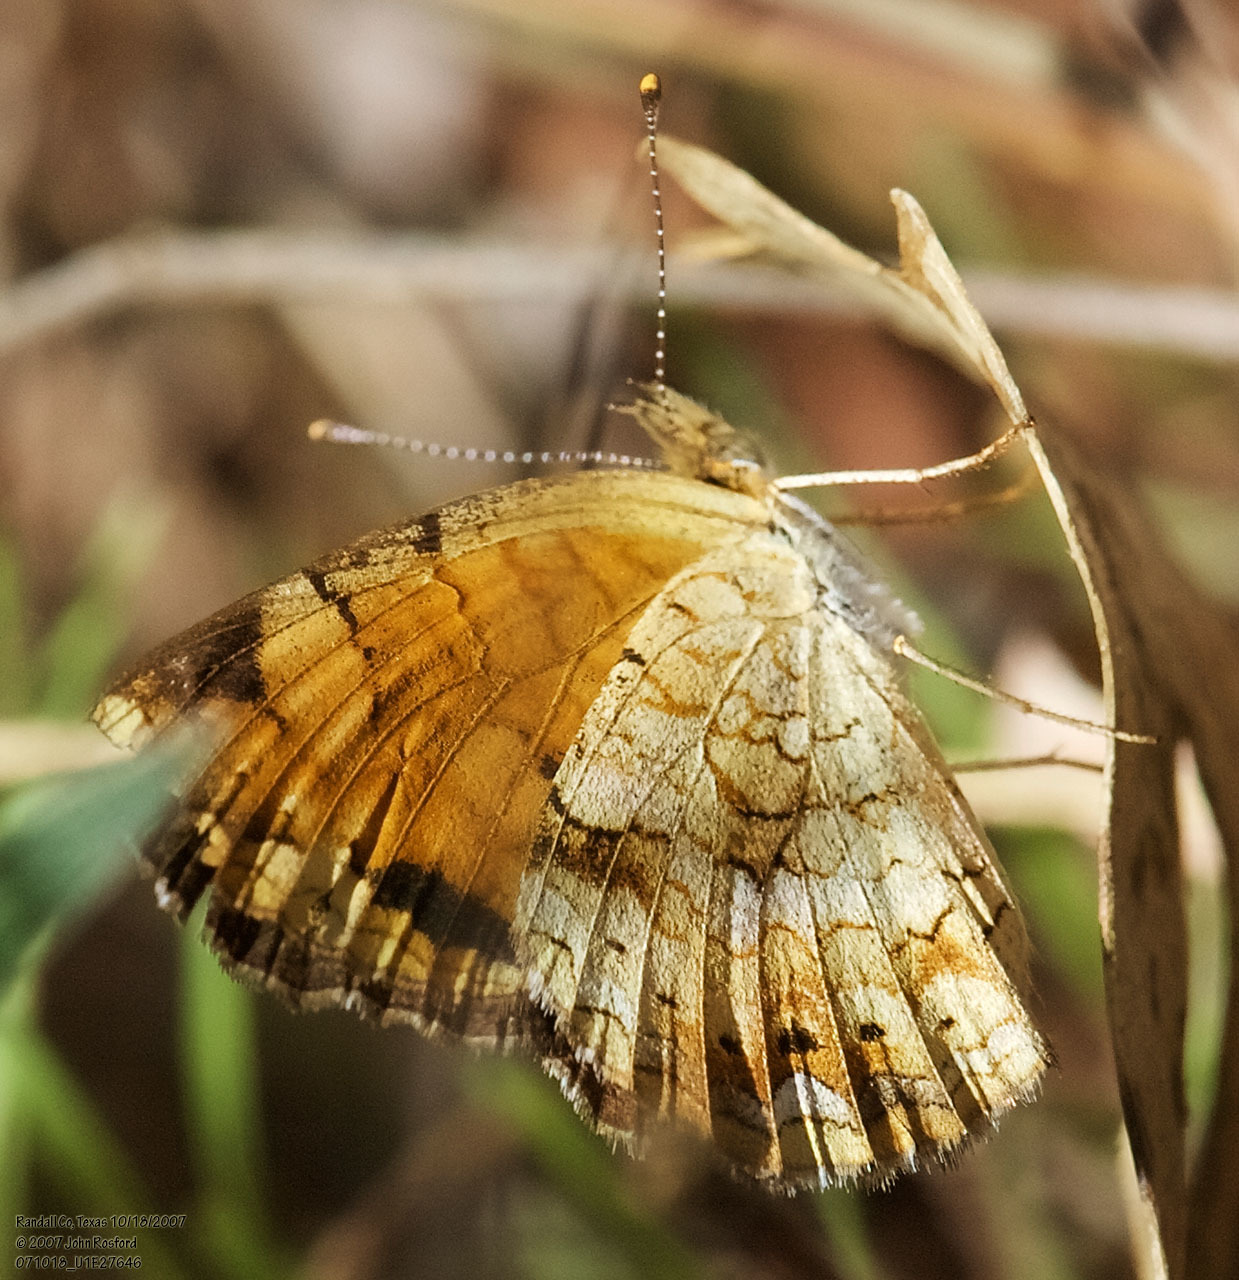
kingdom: Animalia
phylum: Arthropoda
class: Insecta
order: Lepidoptera
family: Nymphalidae
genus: Phyciodes
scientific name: Phyciodes tharos
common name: Pearl crescent
